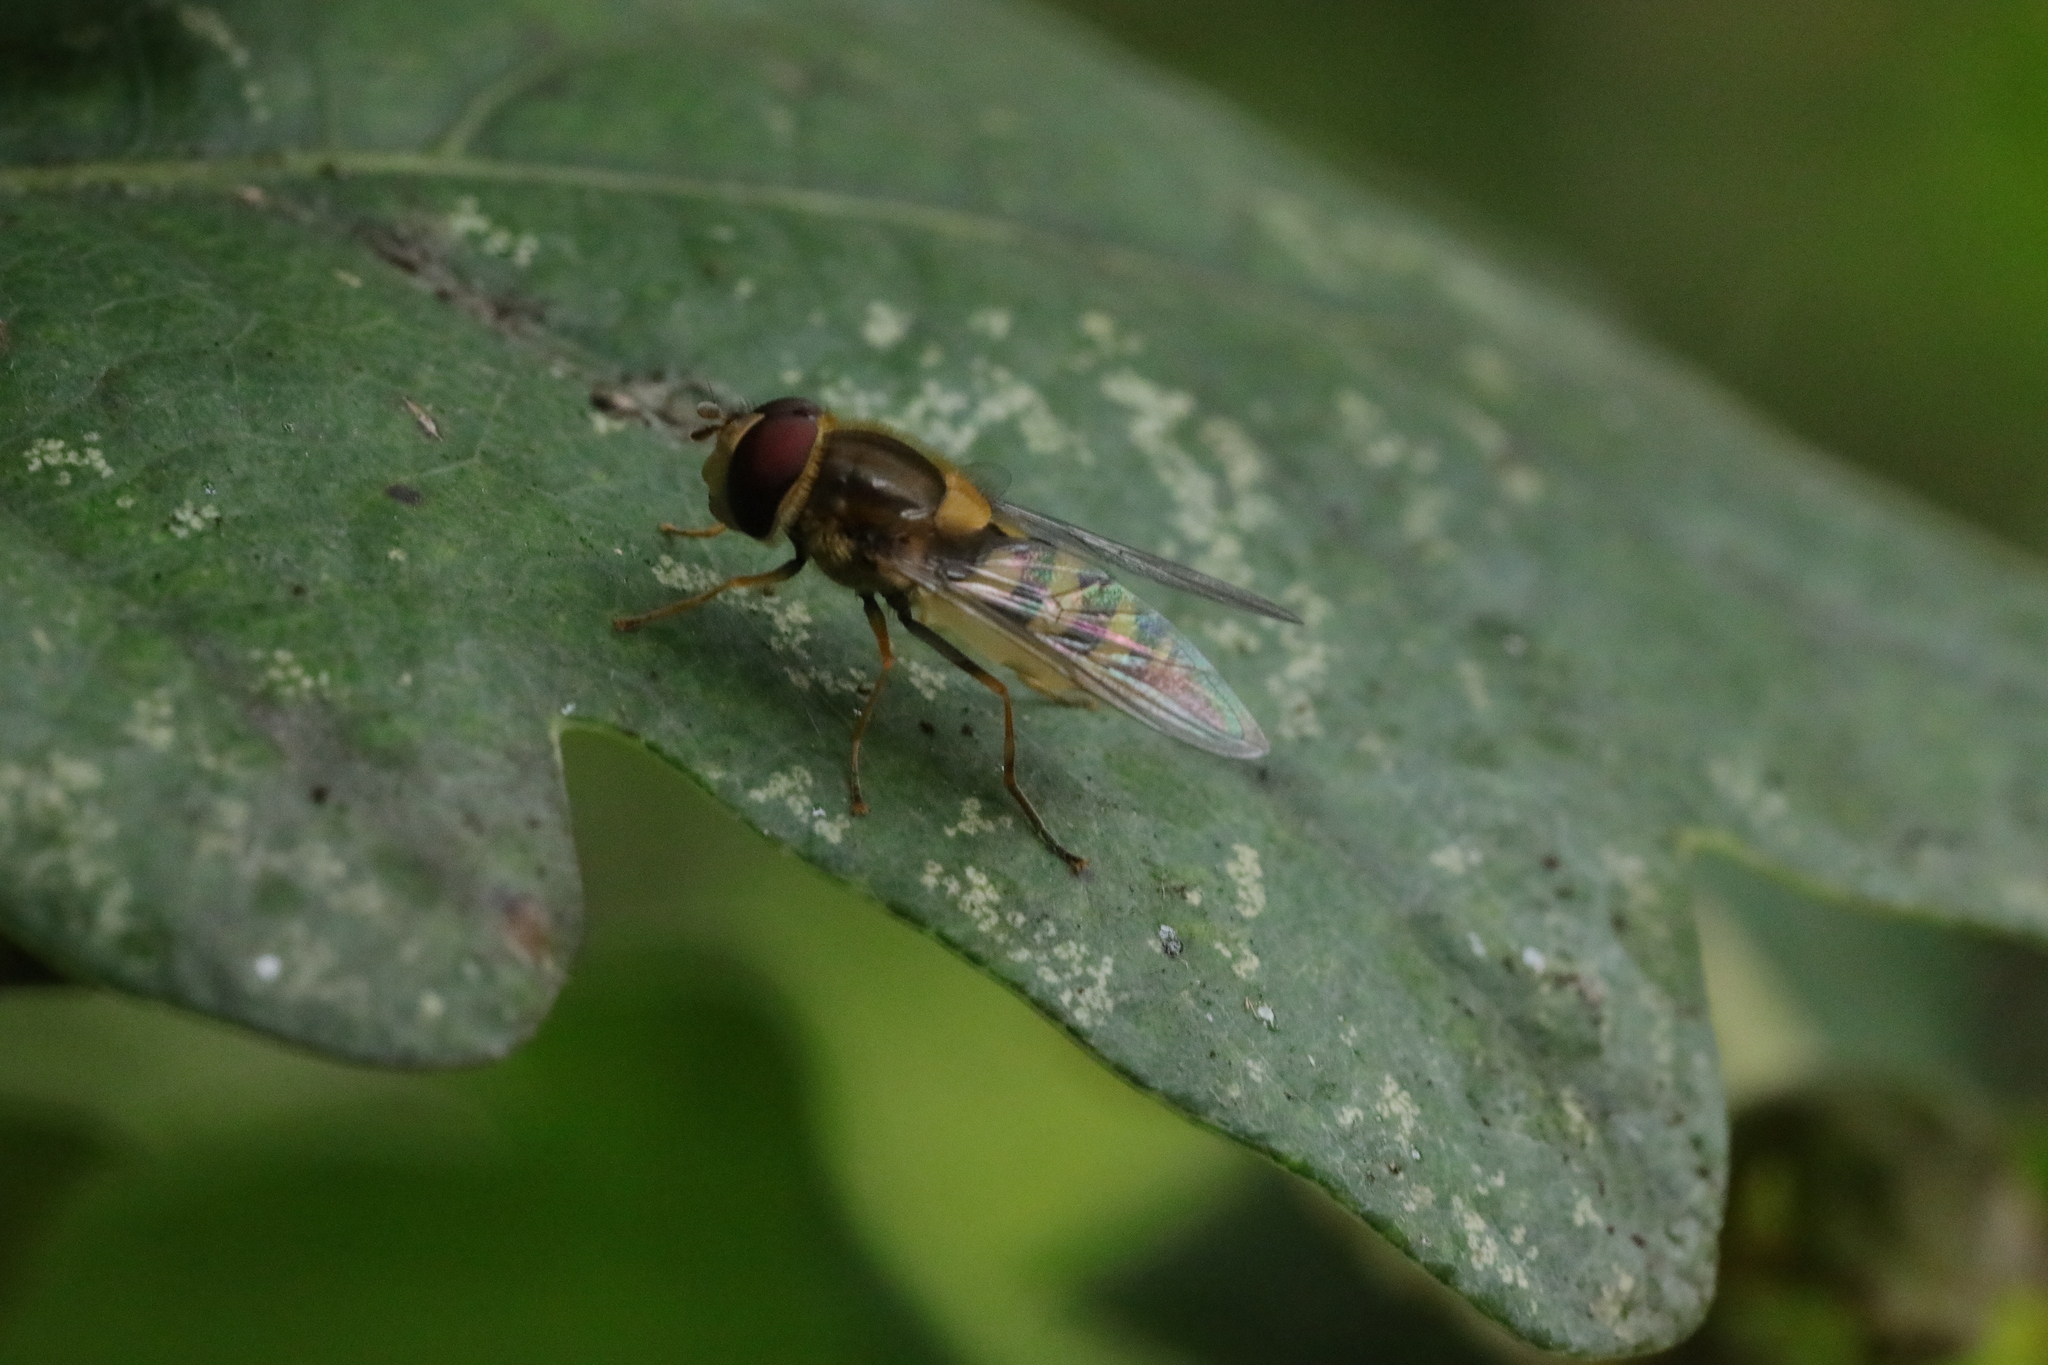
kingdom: Animalia
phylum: Arthropoda
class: Insecta
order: Diptera
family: Syrphidae
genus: Syrphus
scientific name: Syrphus
